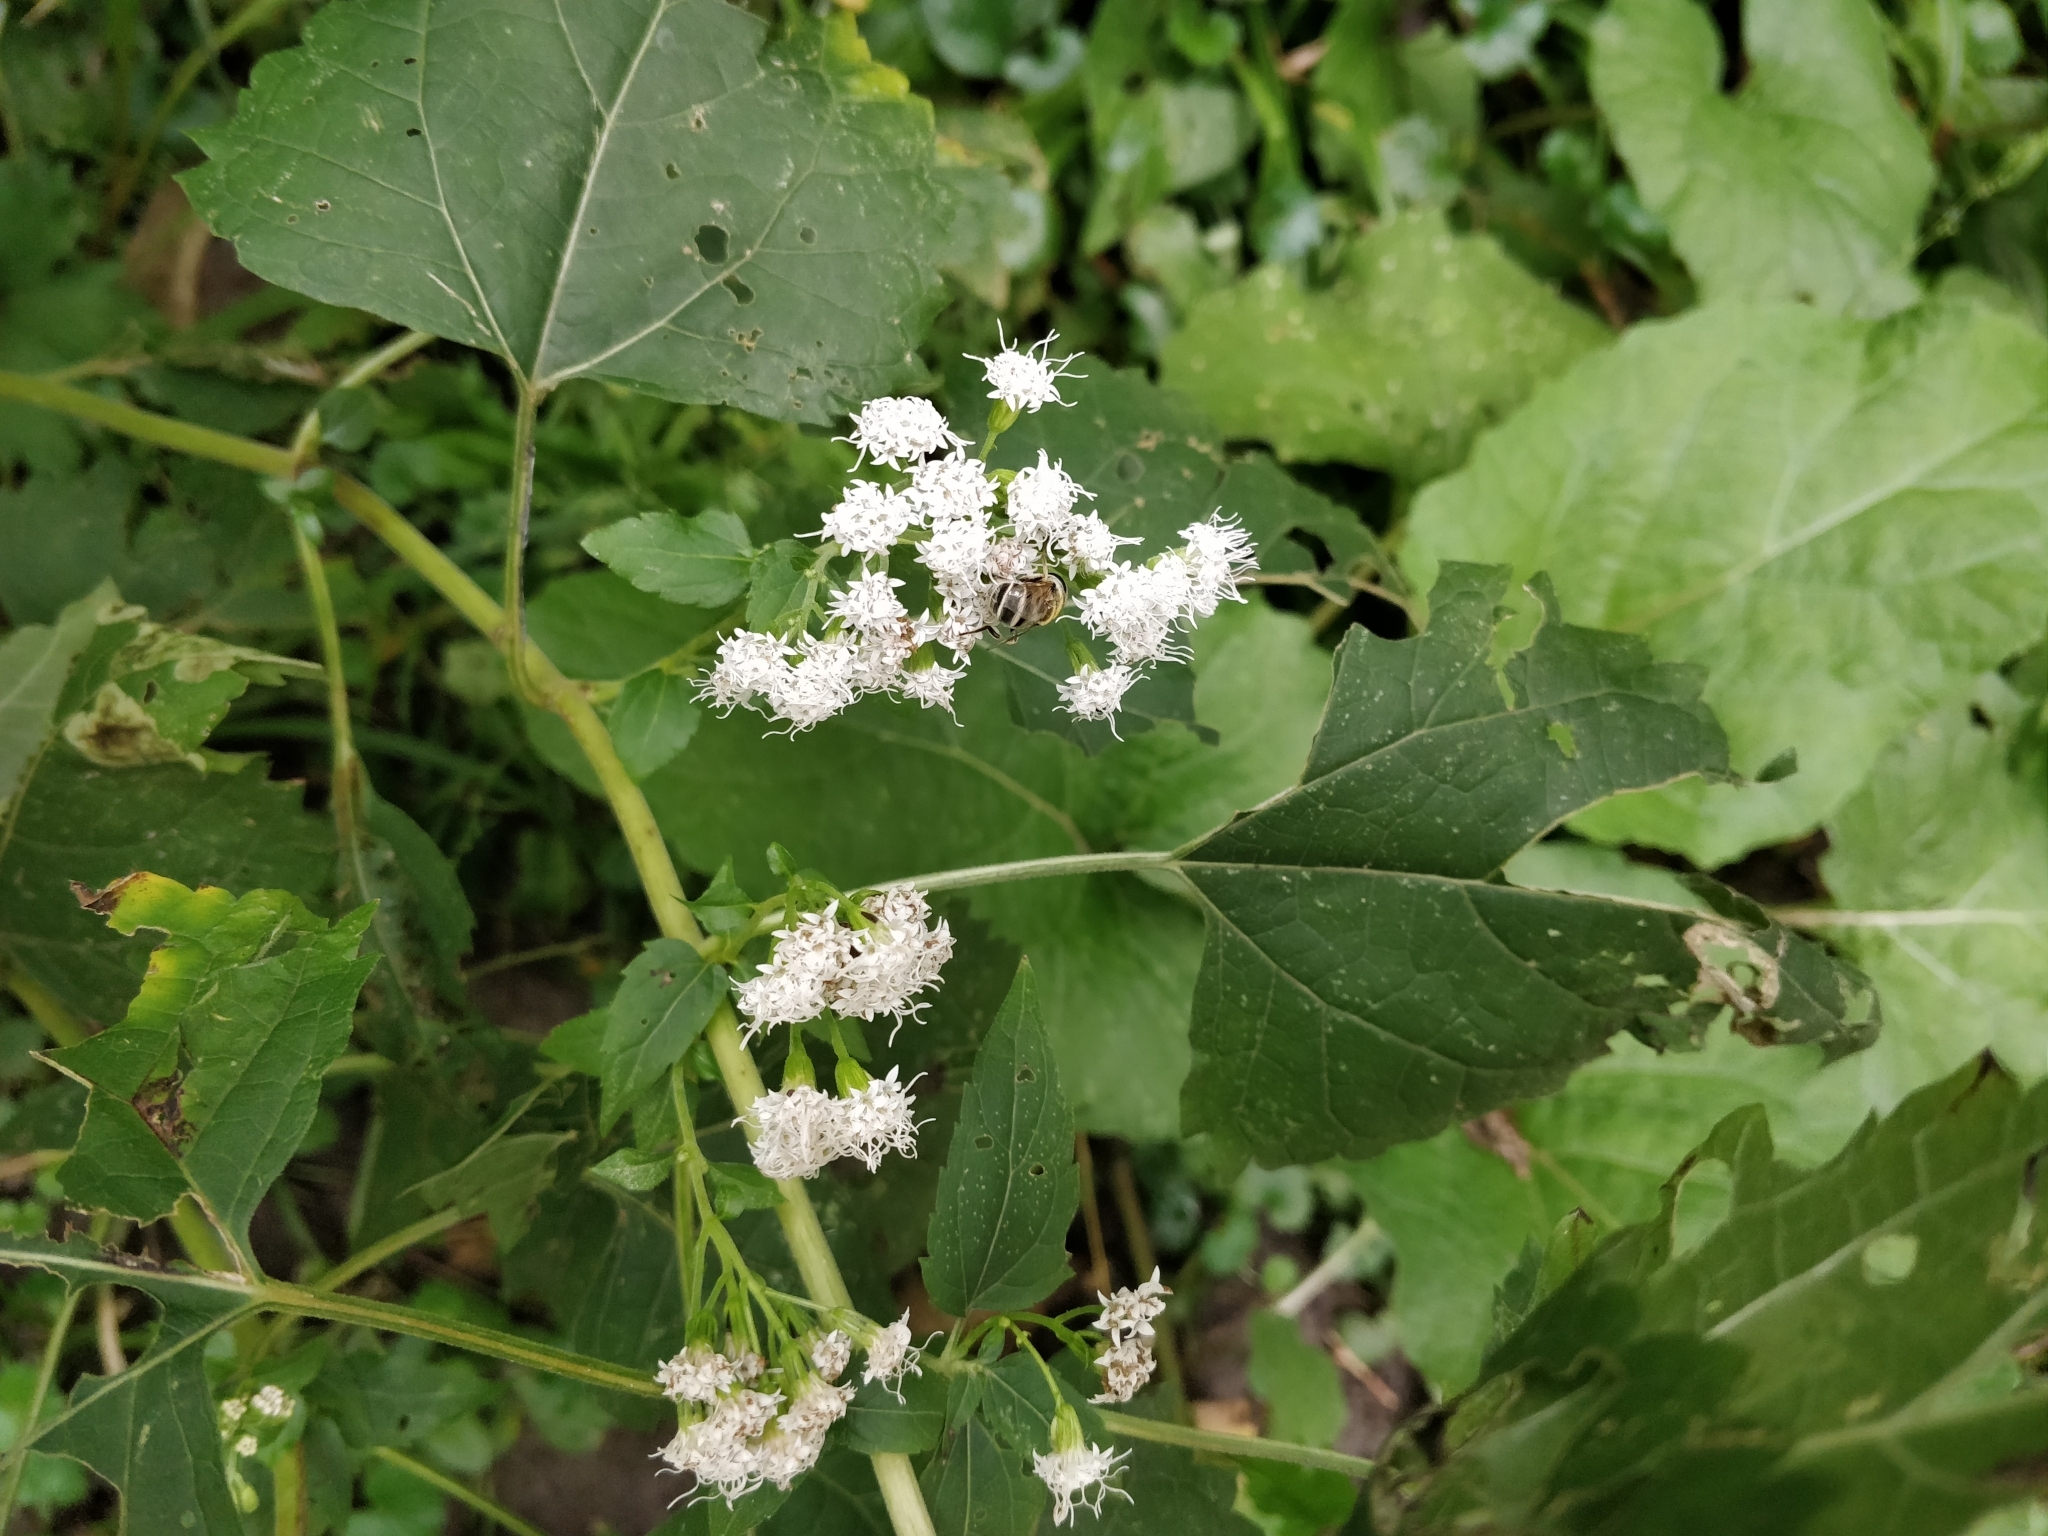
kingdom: Plantae
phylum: Tracheophyta
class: Magnoliopsida
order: Asterales
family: Asteraceae
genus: Ageratina
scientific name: Ageratina altissima
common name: White snakeroot
